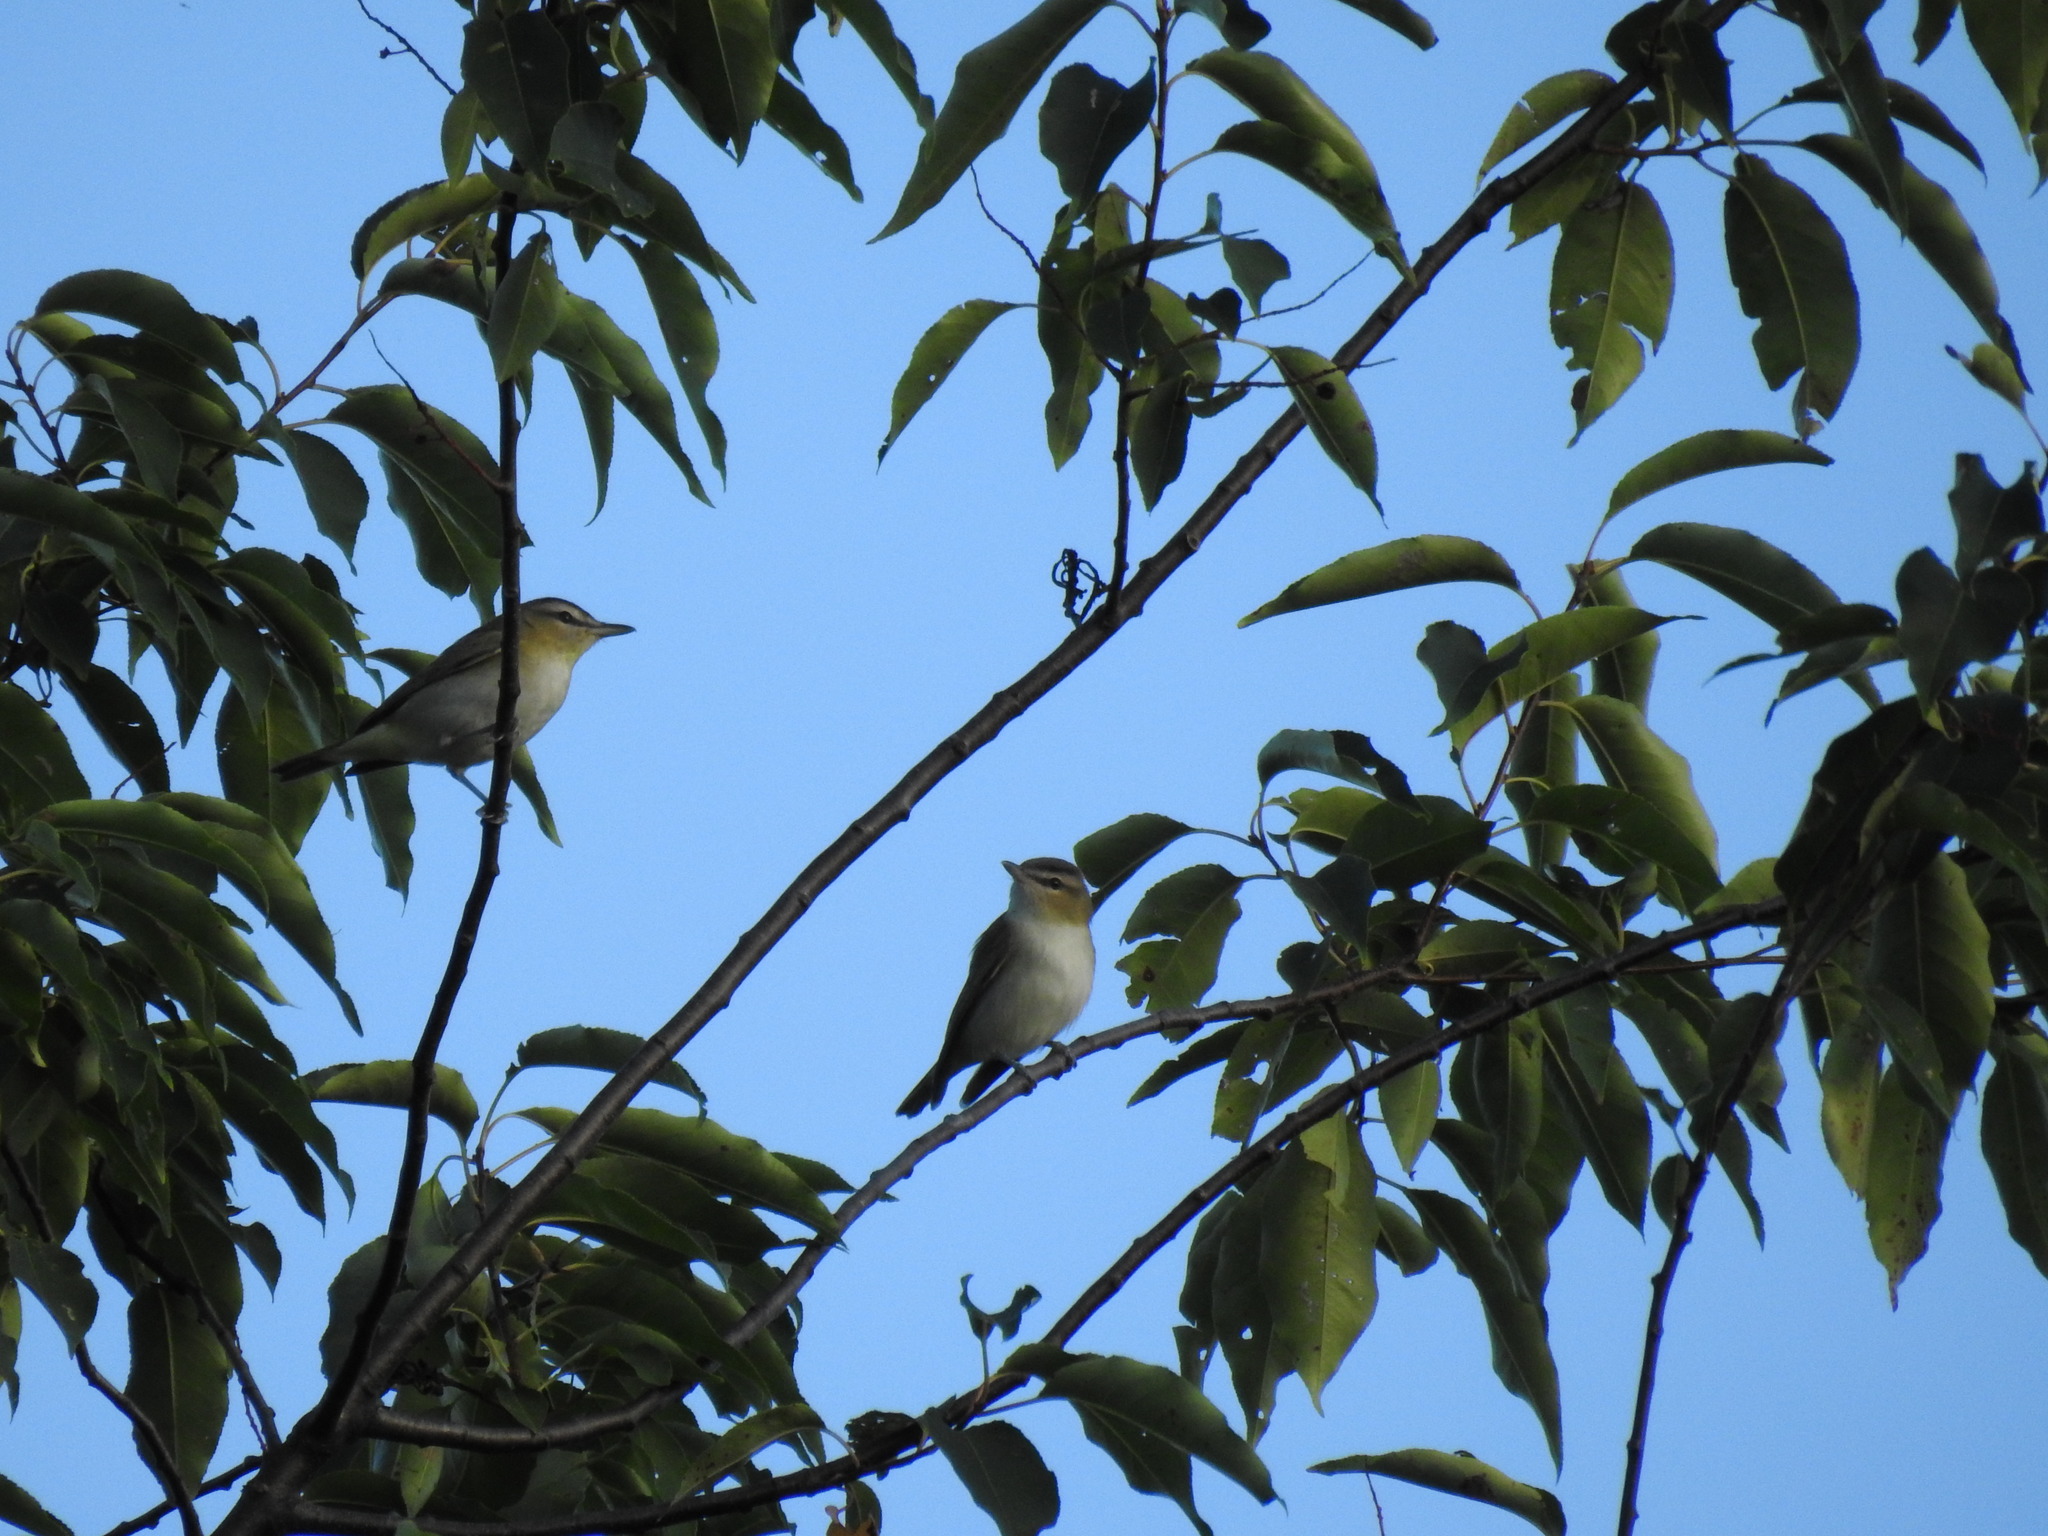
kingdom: Animalia
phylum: Chordata
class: Aves
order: Passeriformes
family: Vireonidae
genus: Vireo
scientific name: Vireo olivaceus
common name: Red-eyed vireo
